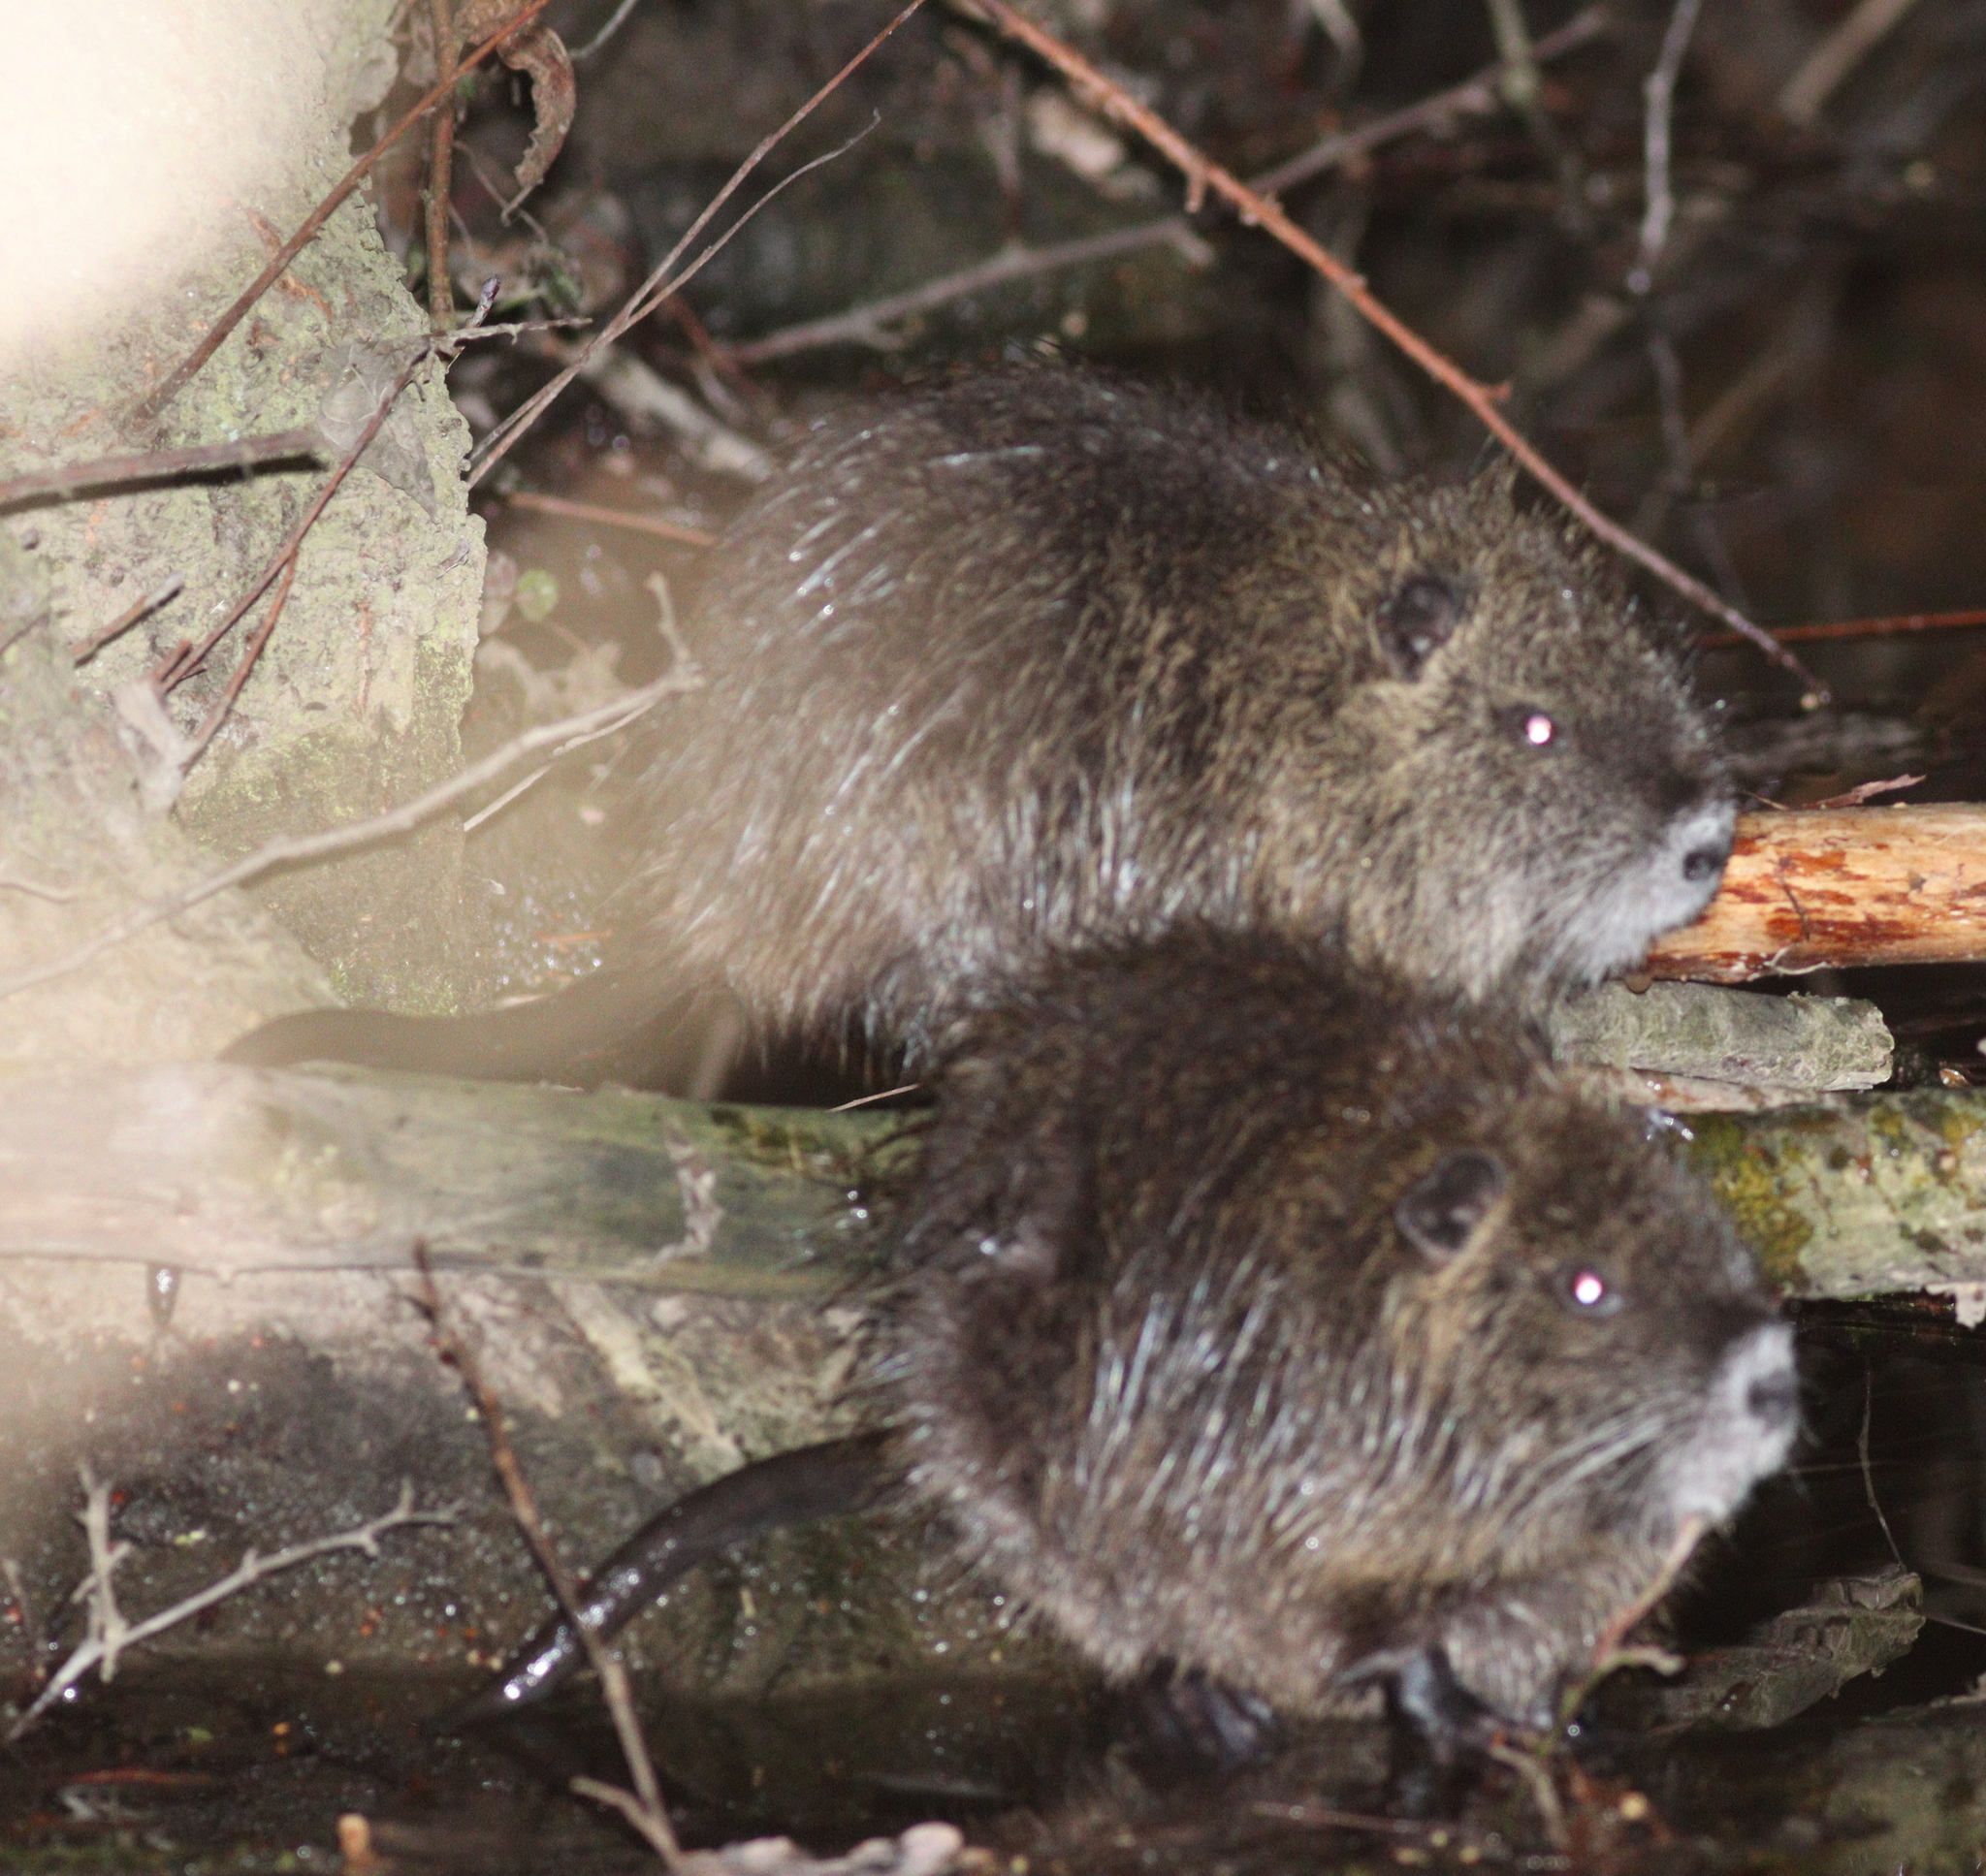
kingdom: Animalia
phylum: Chordata
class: Mammalia
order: Rodentia
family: Myocastoridae
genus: Myocastor
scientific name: Myocastor coypus
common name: Coypu
